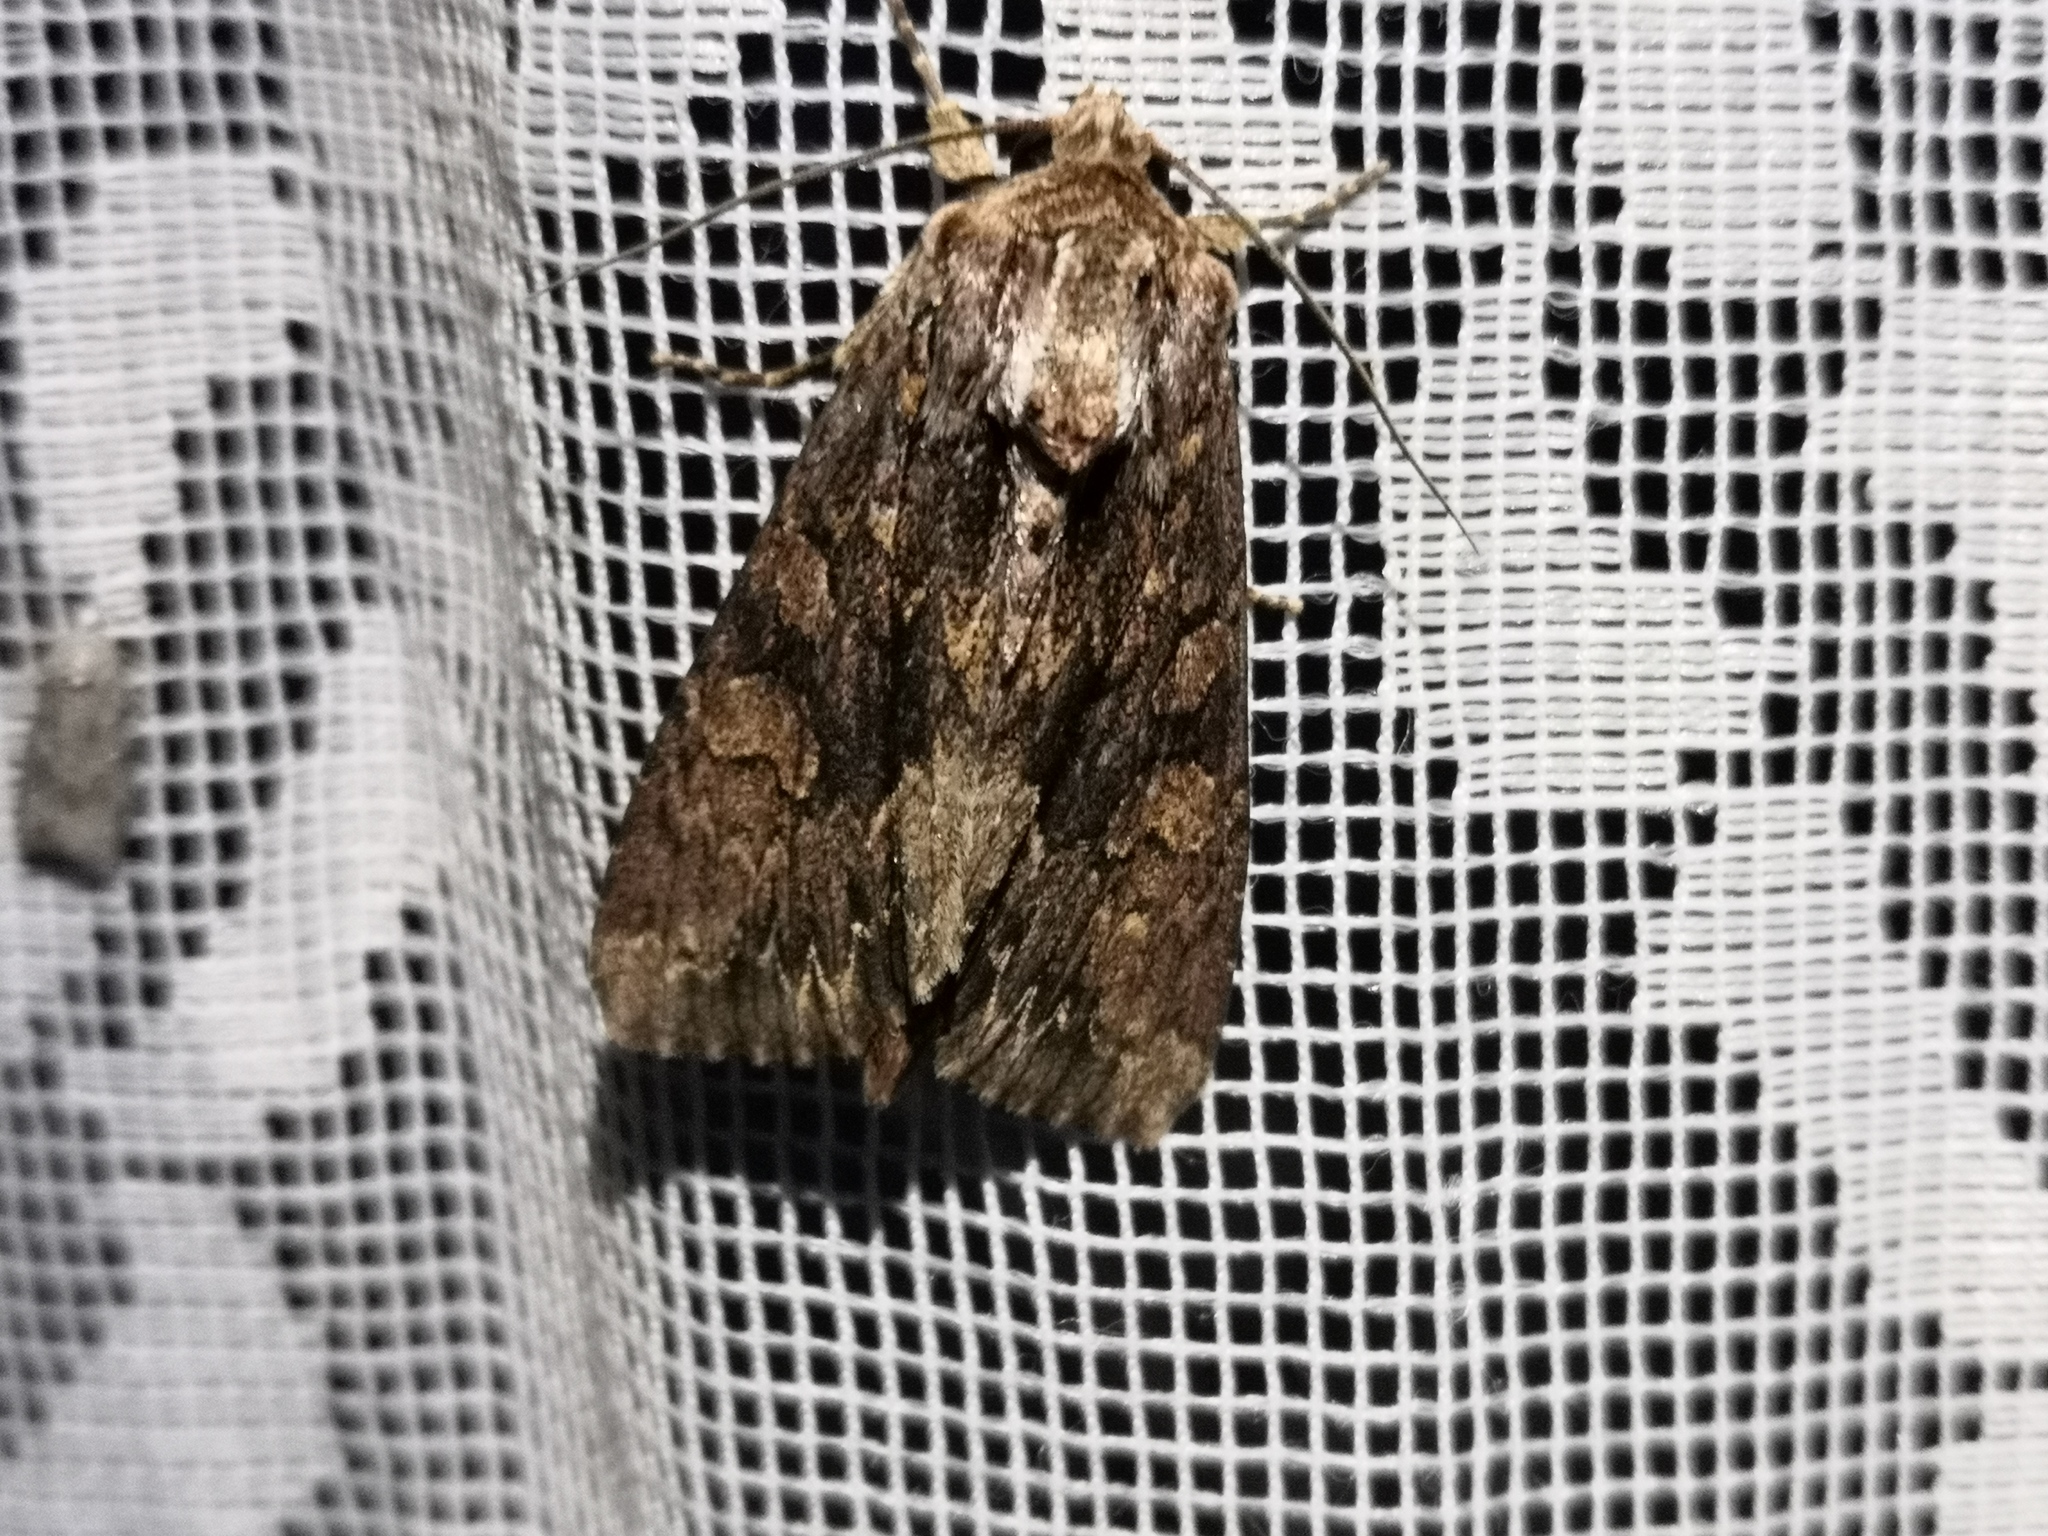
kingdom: Animalia
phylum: Arthropoda
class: Insecta
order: Lepidoptera
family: Noctuidae
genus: Apamea
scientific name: Apamea monoglypha
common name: Dark arches
